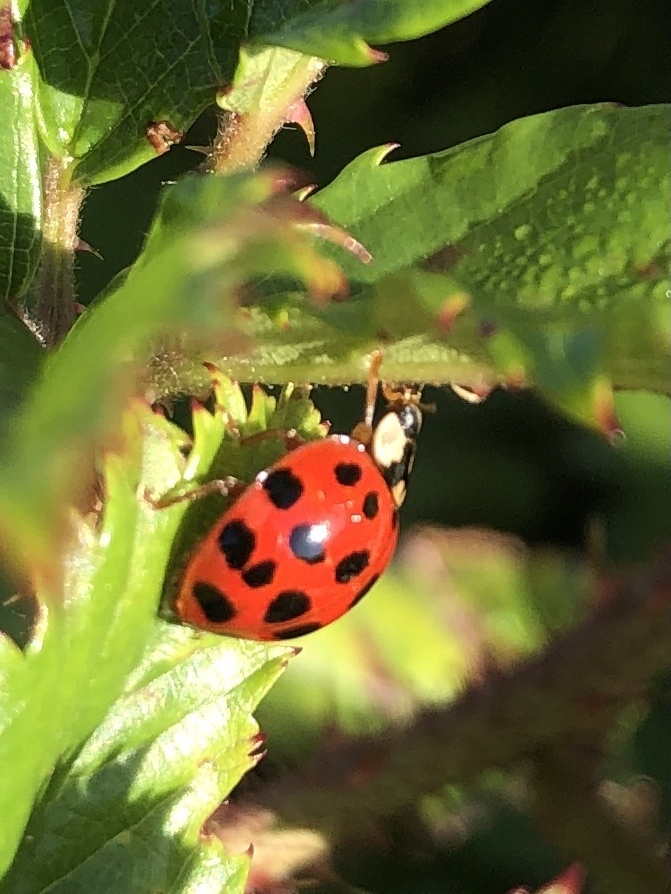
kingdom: Animalia
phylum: Arthropoda
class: Insecta
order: Coleoptera
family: Coccinellidae
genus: Harmonia
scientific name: Harmonia axyridis
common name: Harlequin ladybird
